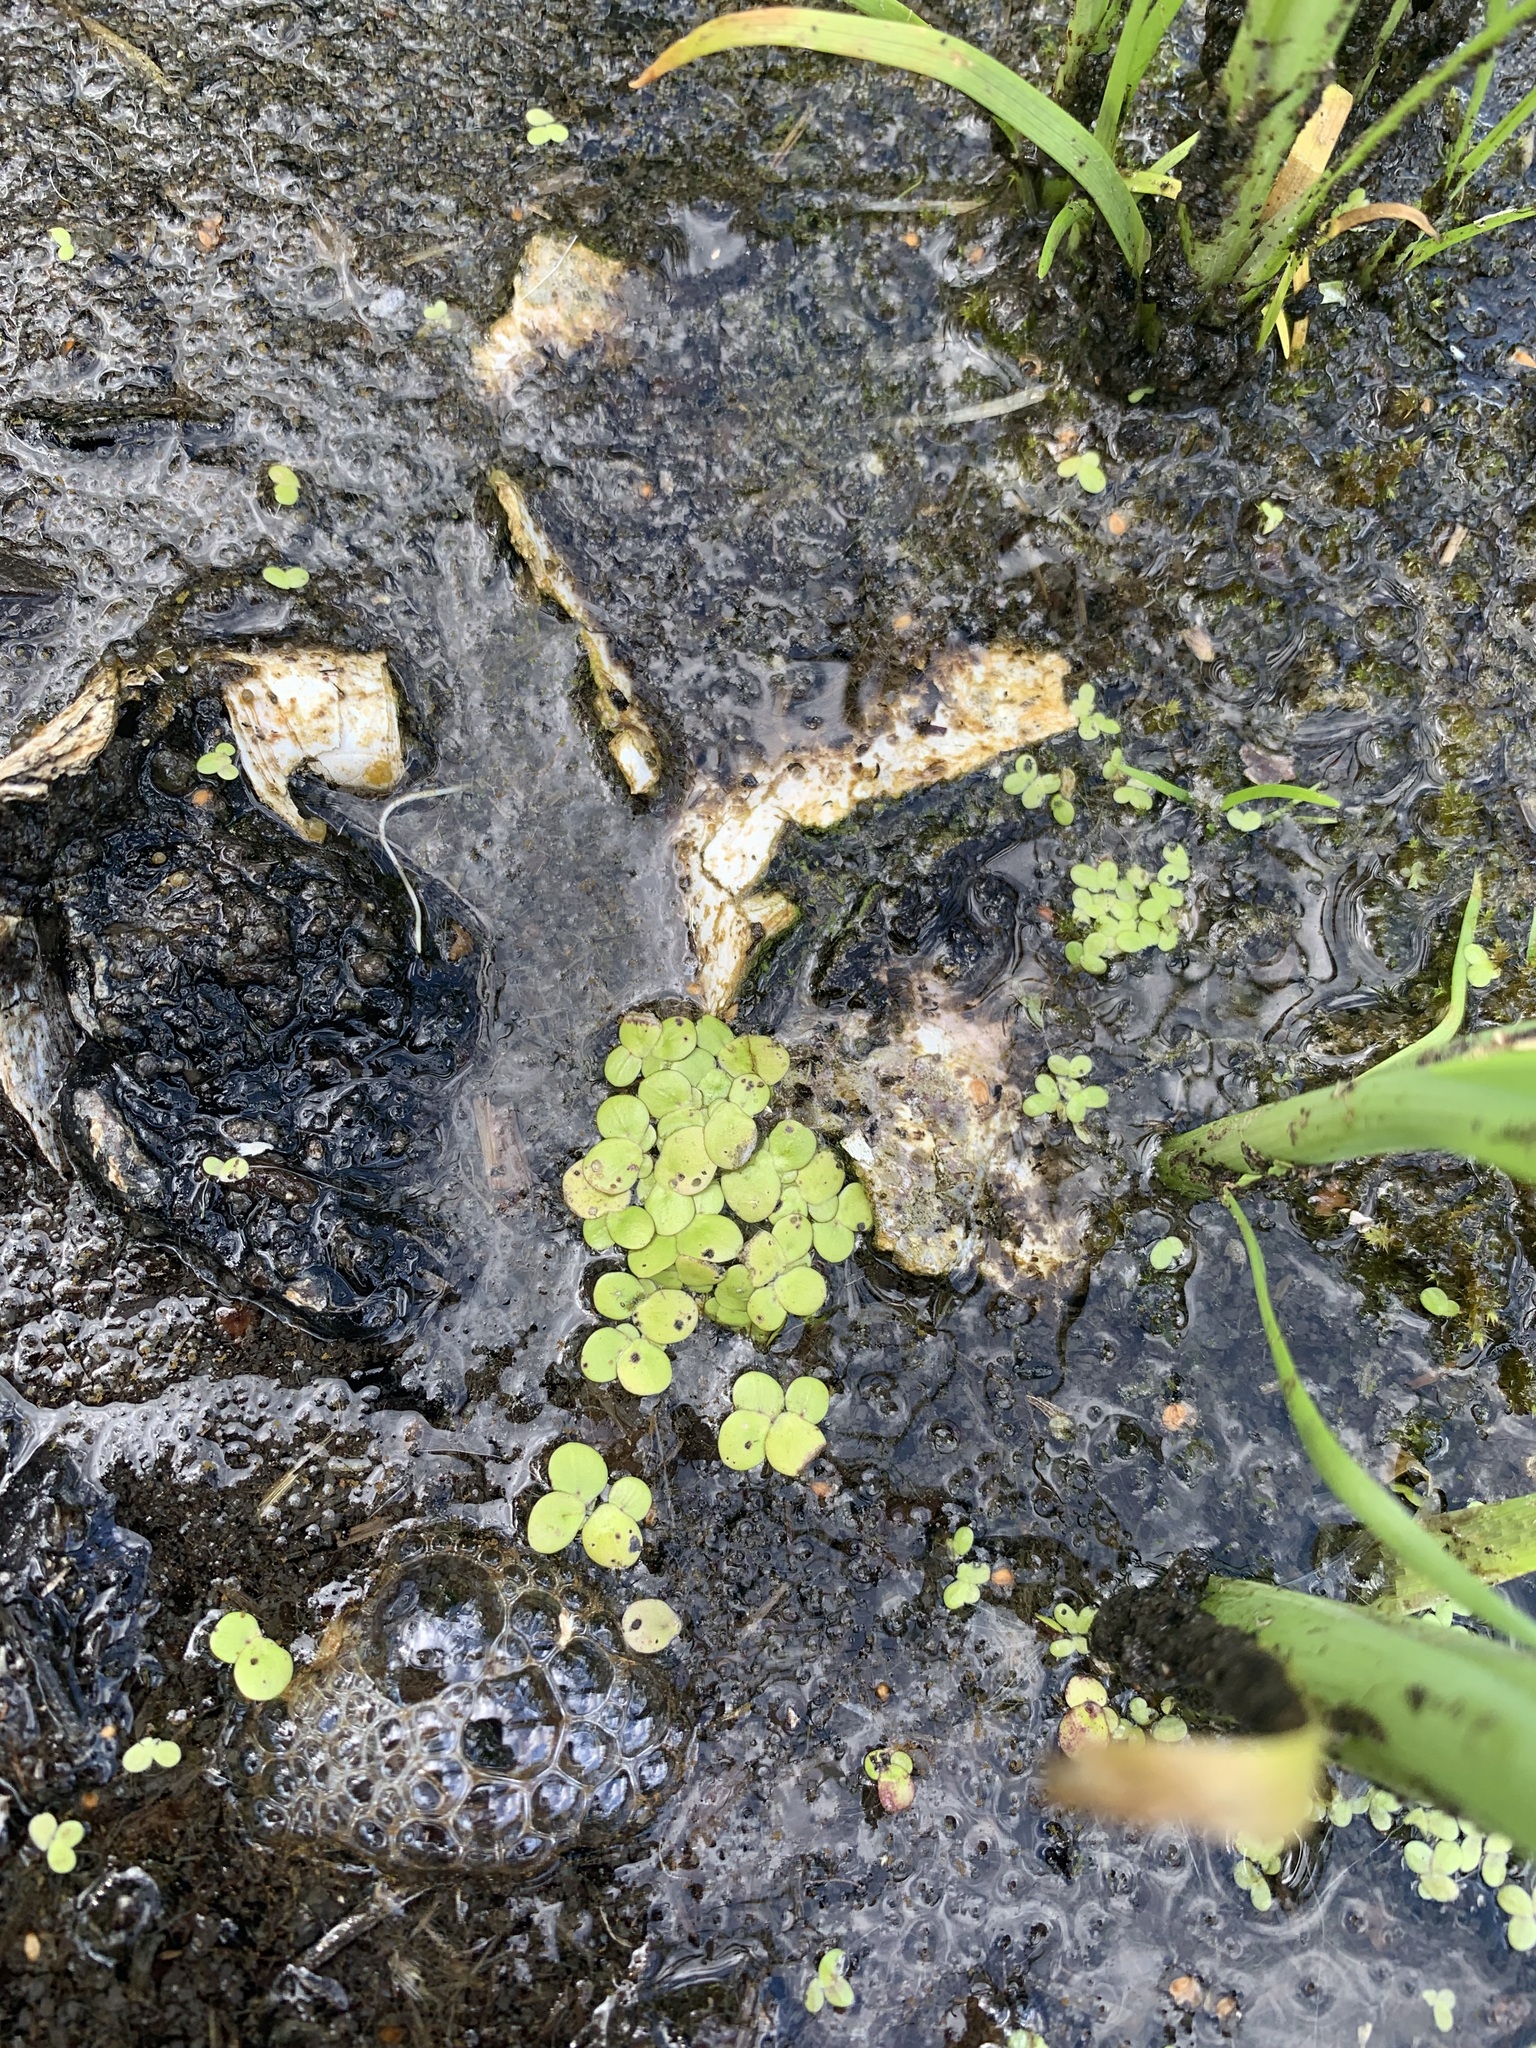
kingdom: Plantae
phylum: Tracheophyta
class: Liliopsida
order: Alismatales
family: Araceae
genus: Spirodela
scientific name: Spirodela polyrhiza
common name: Great duckweed
